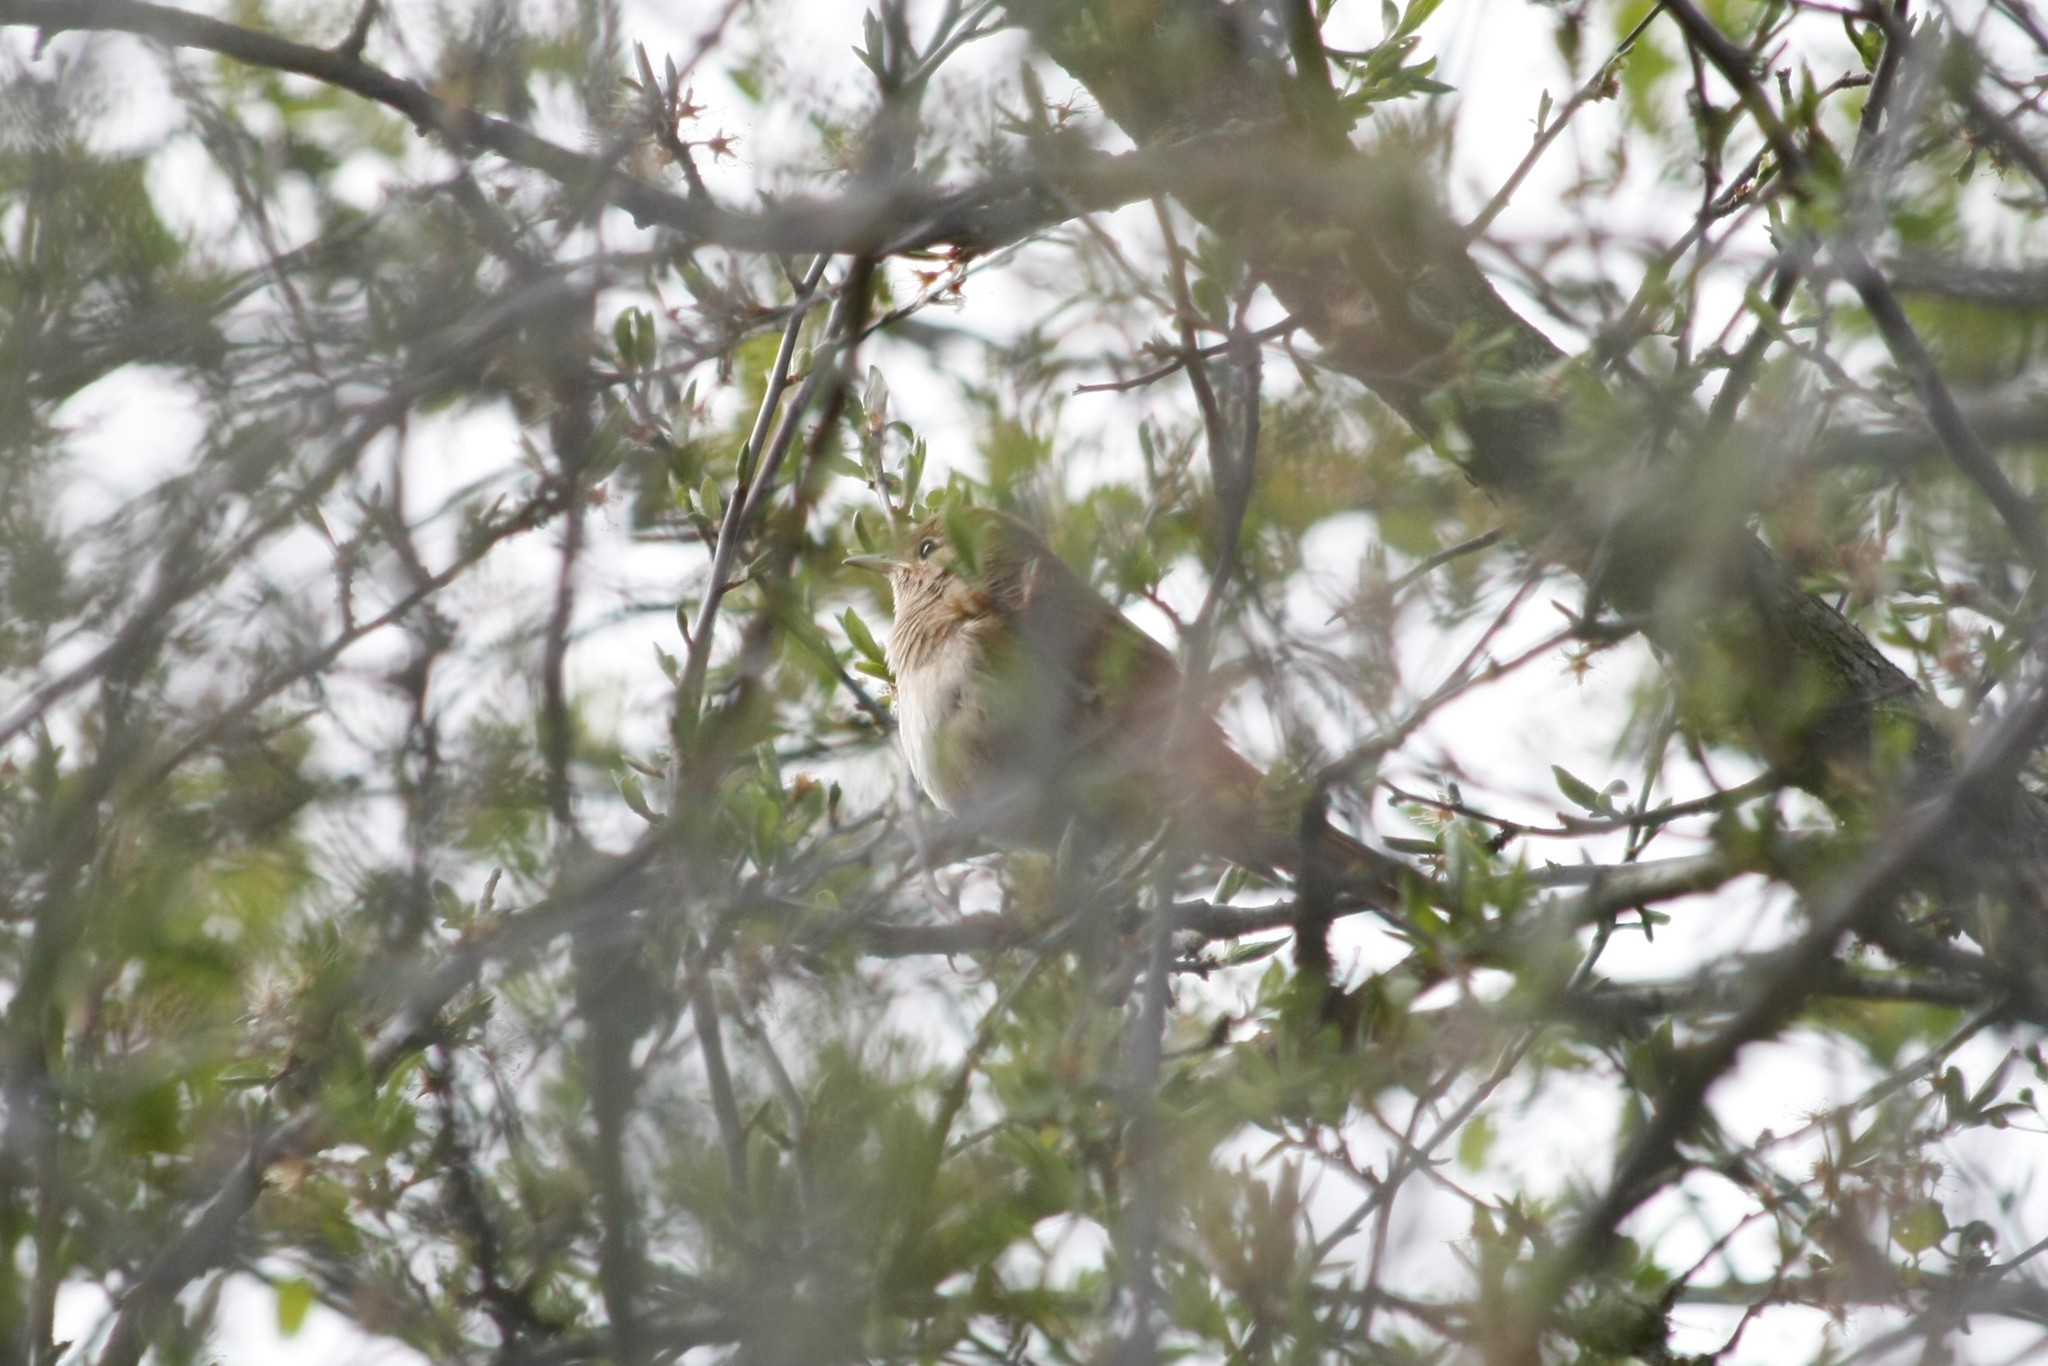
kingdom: Animalia
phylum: Chordata
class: Aves
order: Passeriformes
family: Muscicapidae
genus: Luscinia
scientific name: Luscinia megarhynchos
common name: Common nightingale
